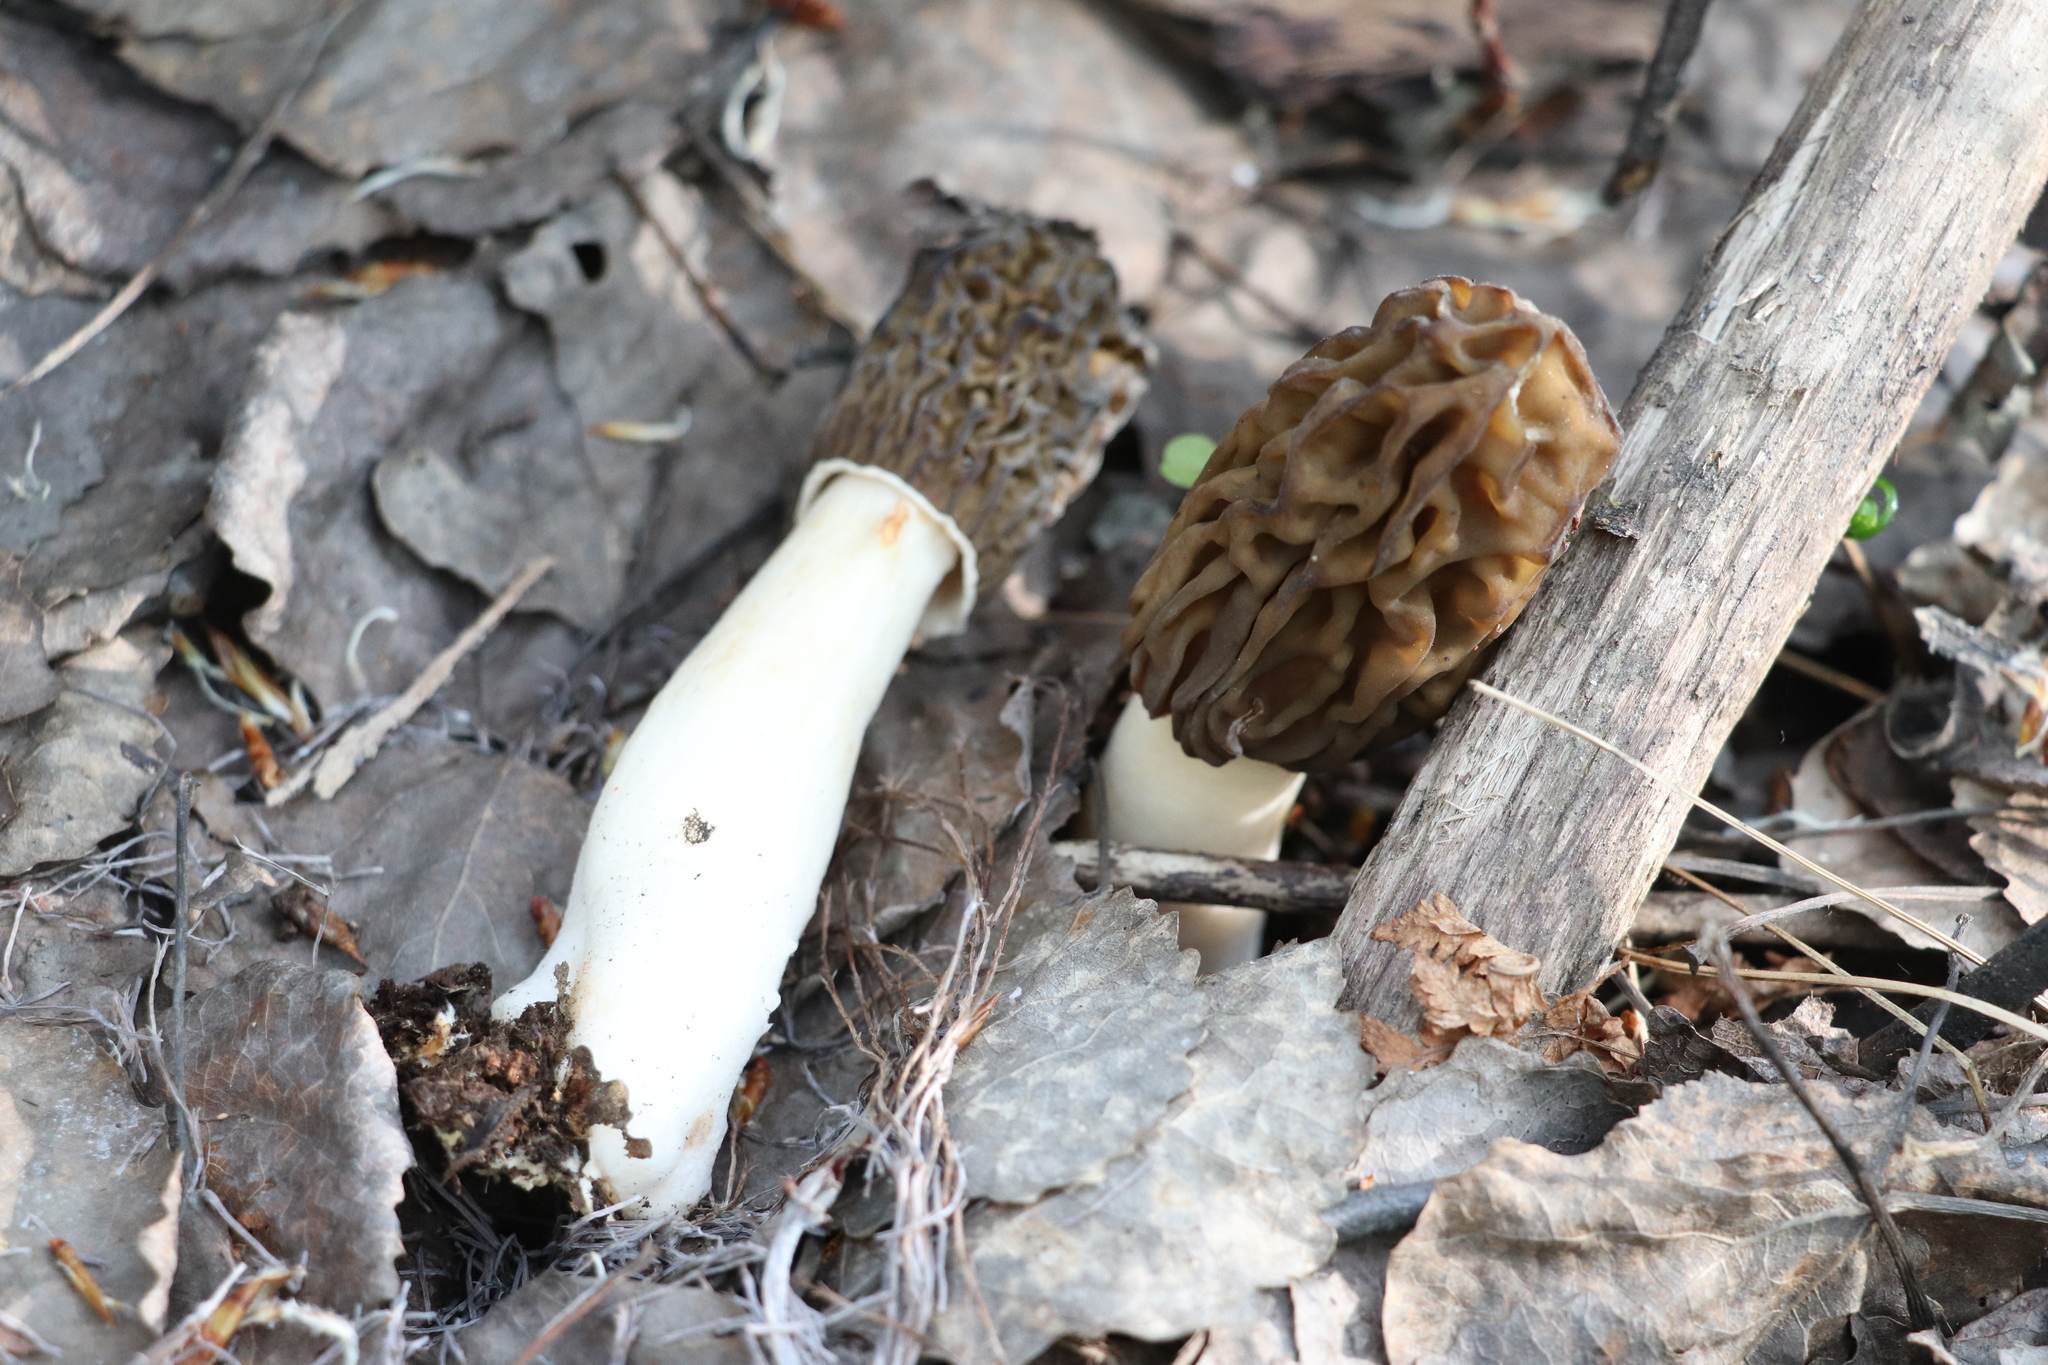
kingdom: Fungi
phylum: Ascomycota
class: Pezizomycetes
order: Pezizales
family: Morchellaceae
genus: Verpa
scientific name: Verpa bohemica
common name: Wrinkled thimble morel
